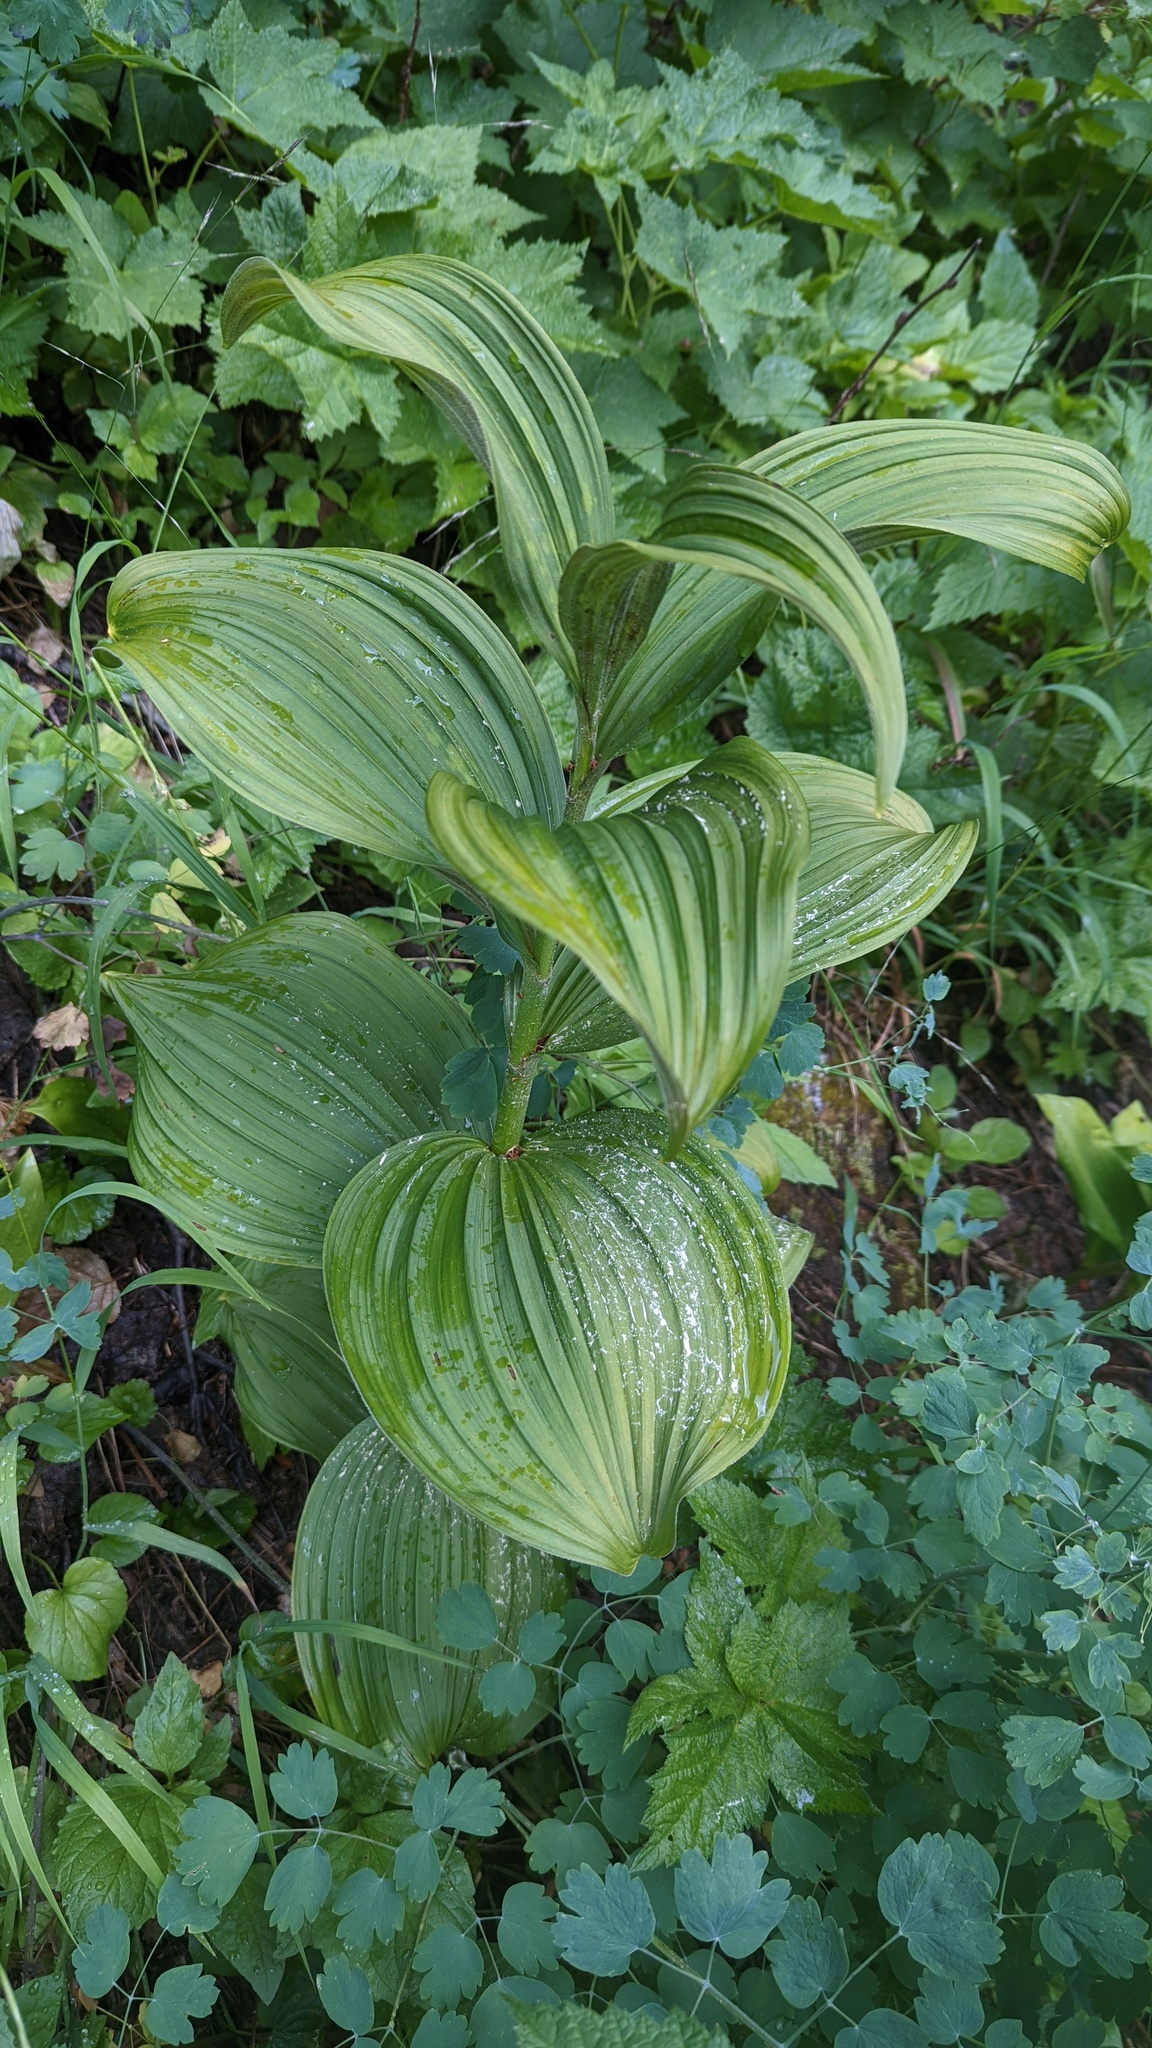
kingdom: Plantae
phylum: Tracheophyta
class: Liliopsida
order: Liliales
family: Melanthiaceae
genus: Veratrum
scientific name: Veratrum viride
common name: American false hellebore
